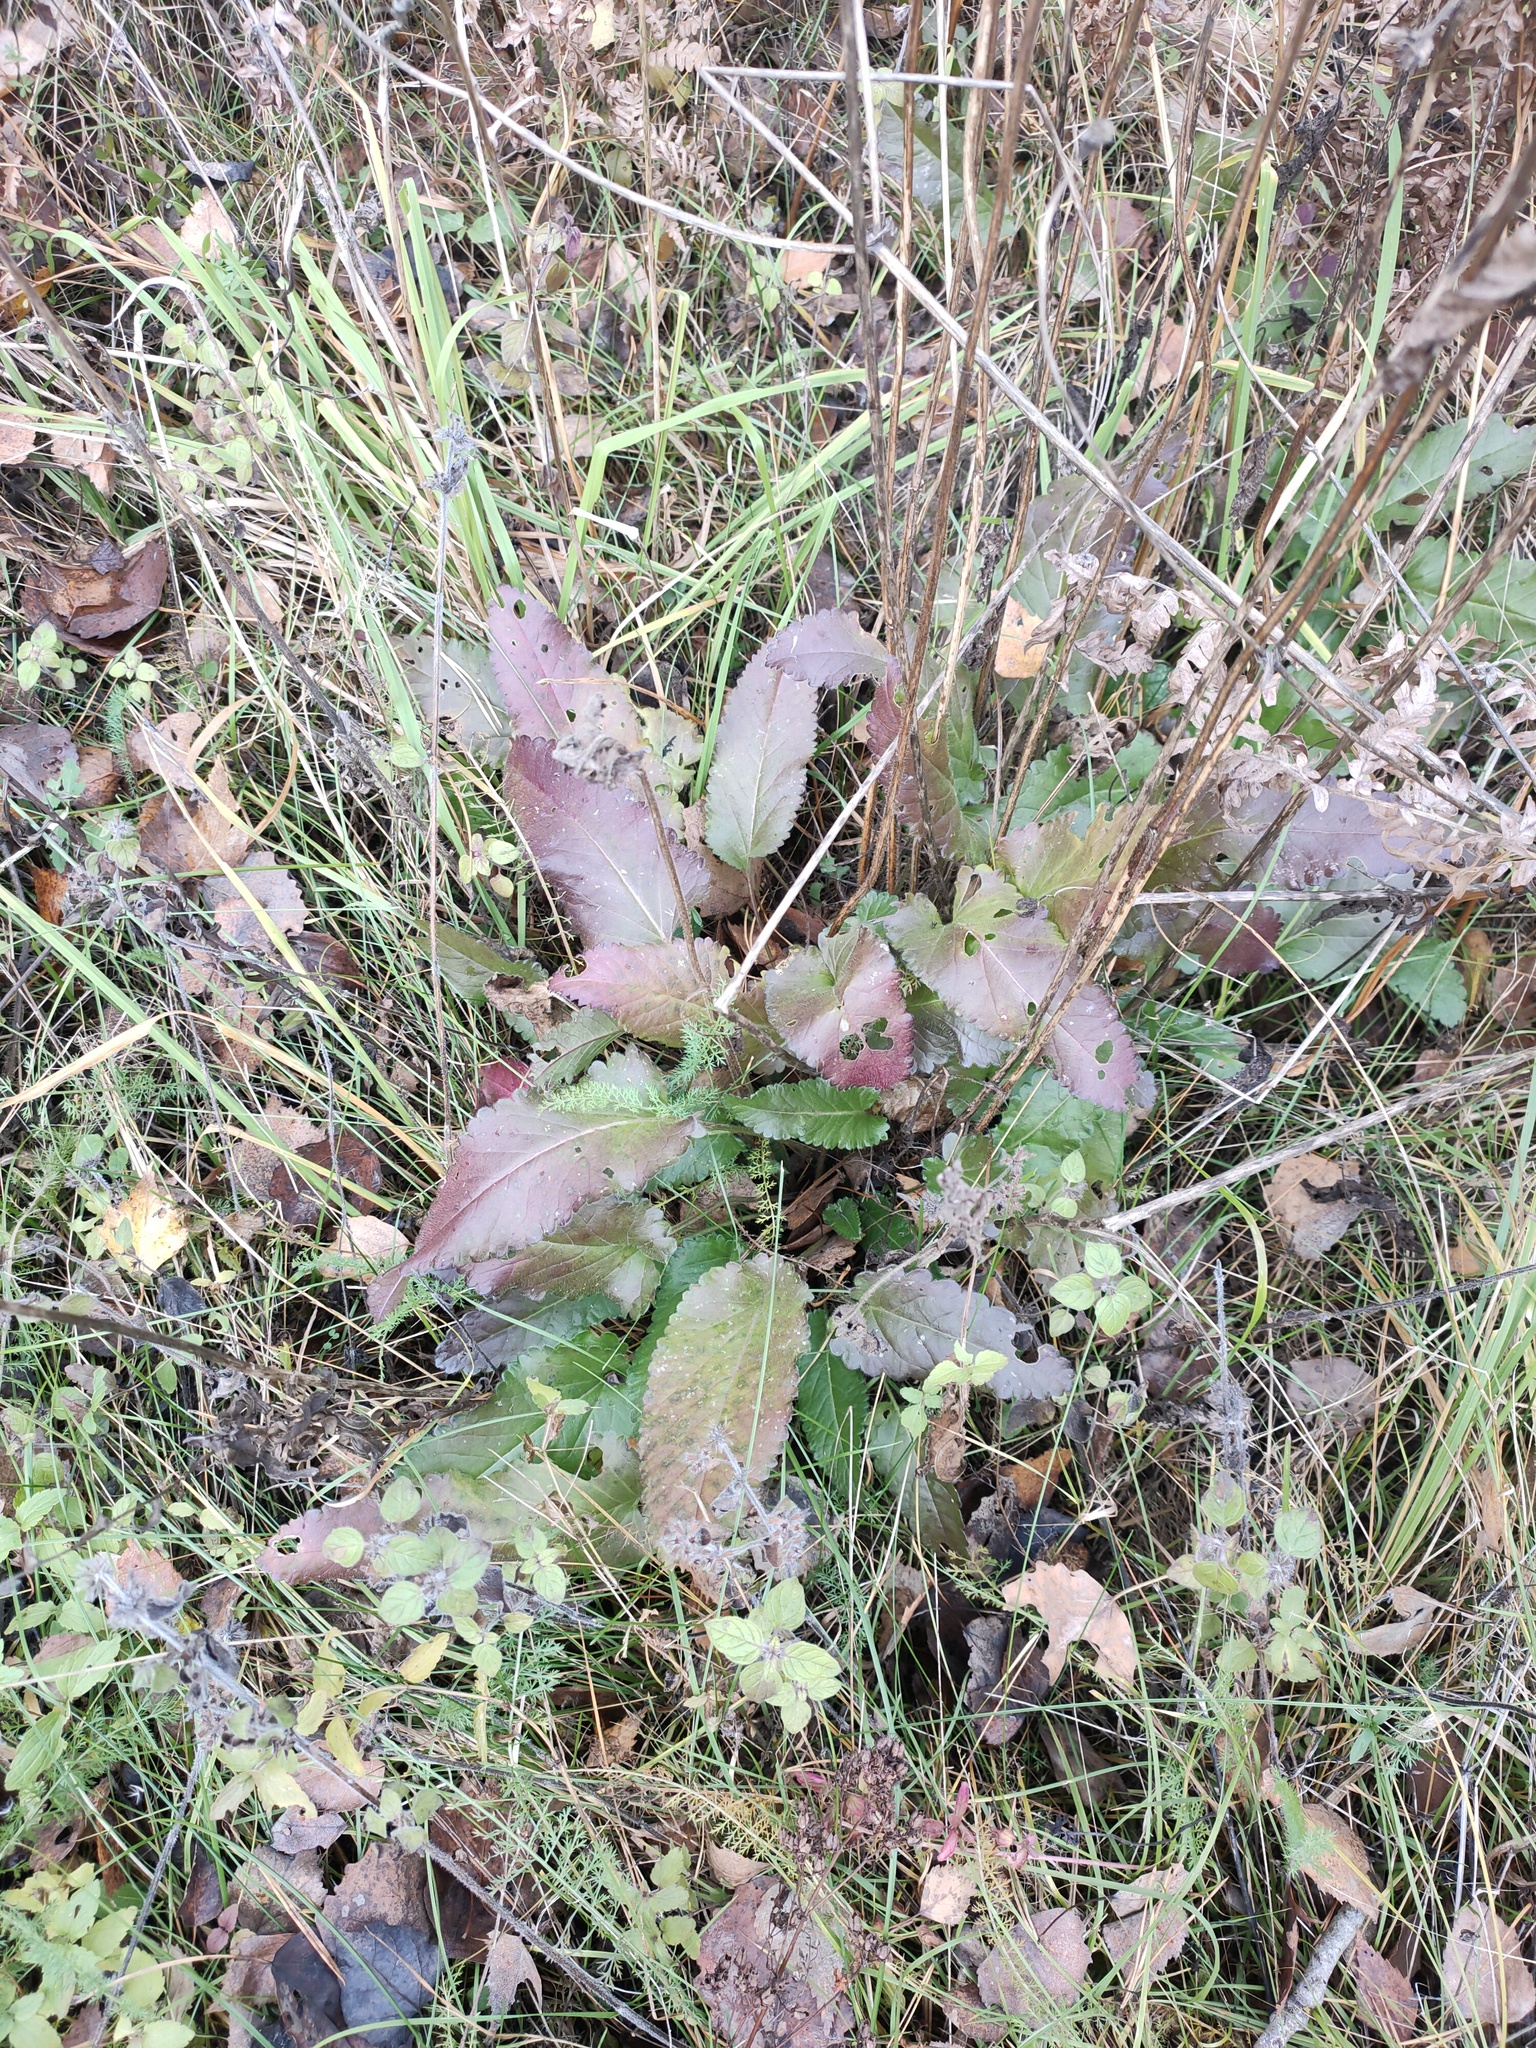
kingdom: Plantae
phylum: Tracheophyta
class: Magnoliopsida
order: Lamiales
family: Lamiaceae
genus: Betonica
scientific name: Betonica officinalis
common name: Bishop's-wort
